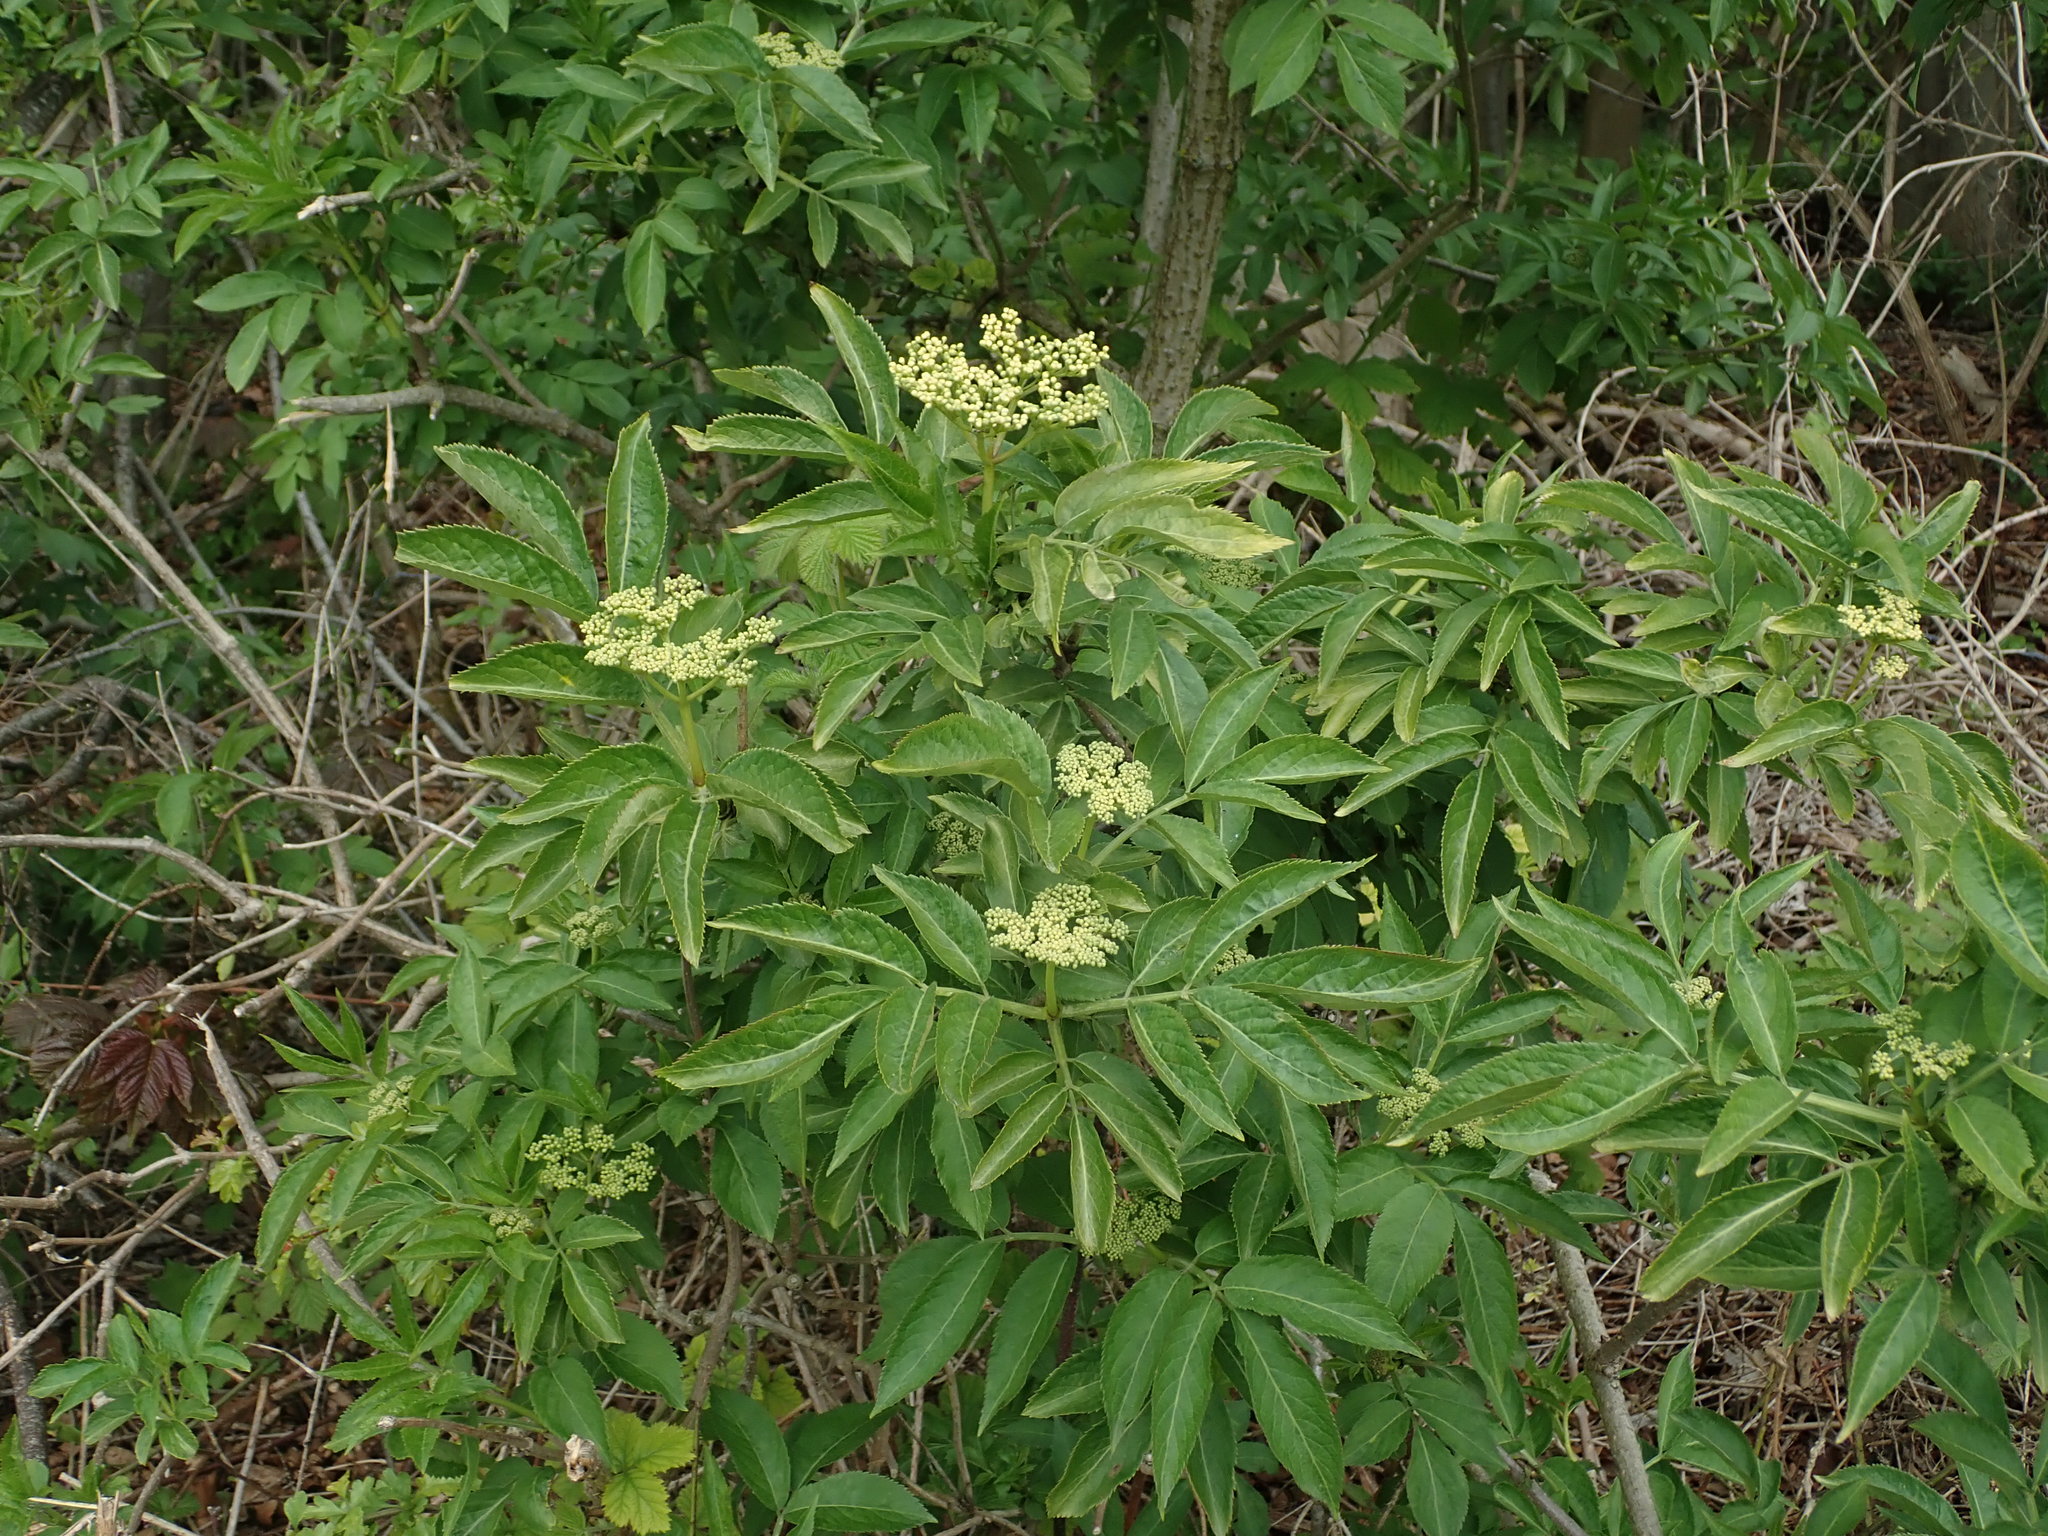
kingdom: Plantae
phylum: Tracheophyta
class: Magnoliopsida
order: Dipsacales
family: Viburnaceae
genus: Sambucus
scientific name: Sambucus nigra
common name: Elder
